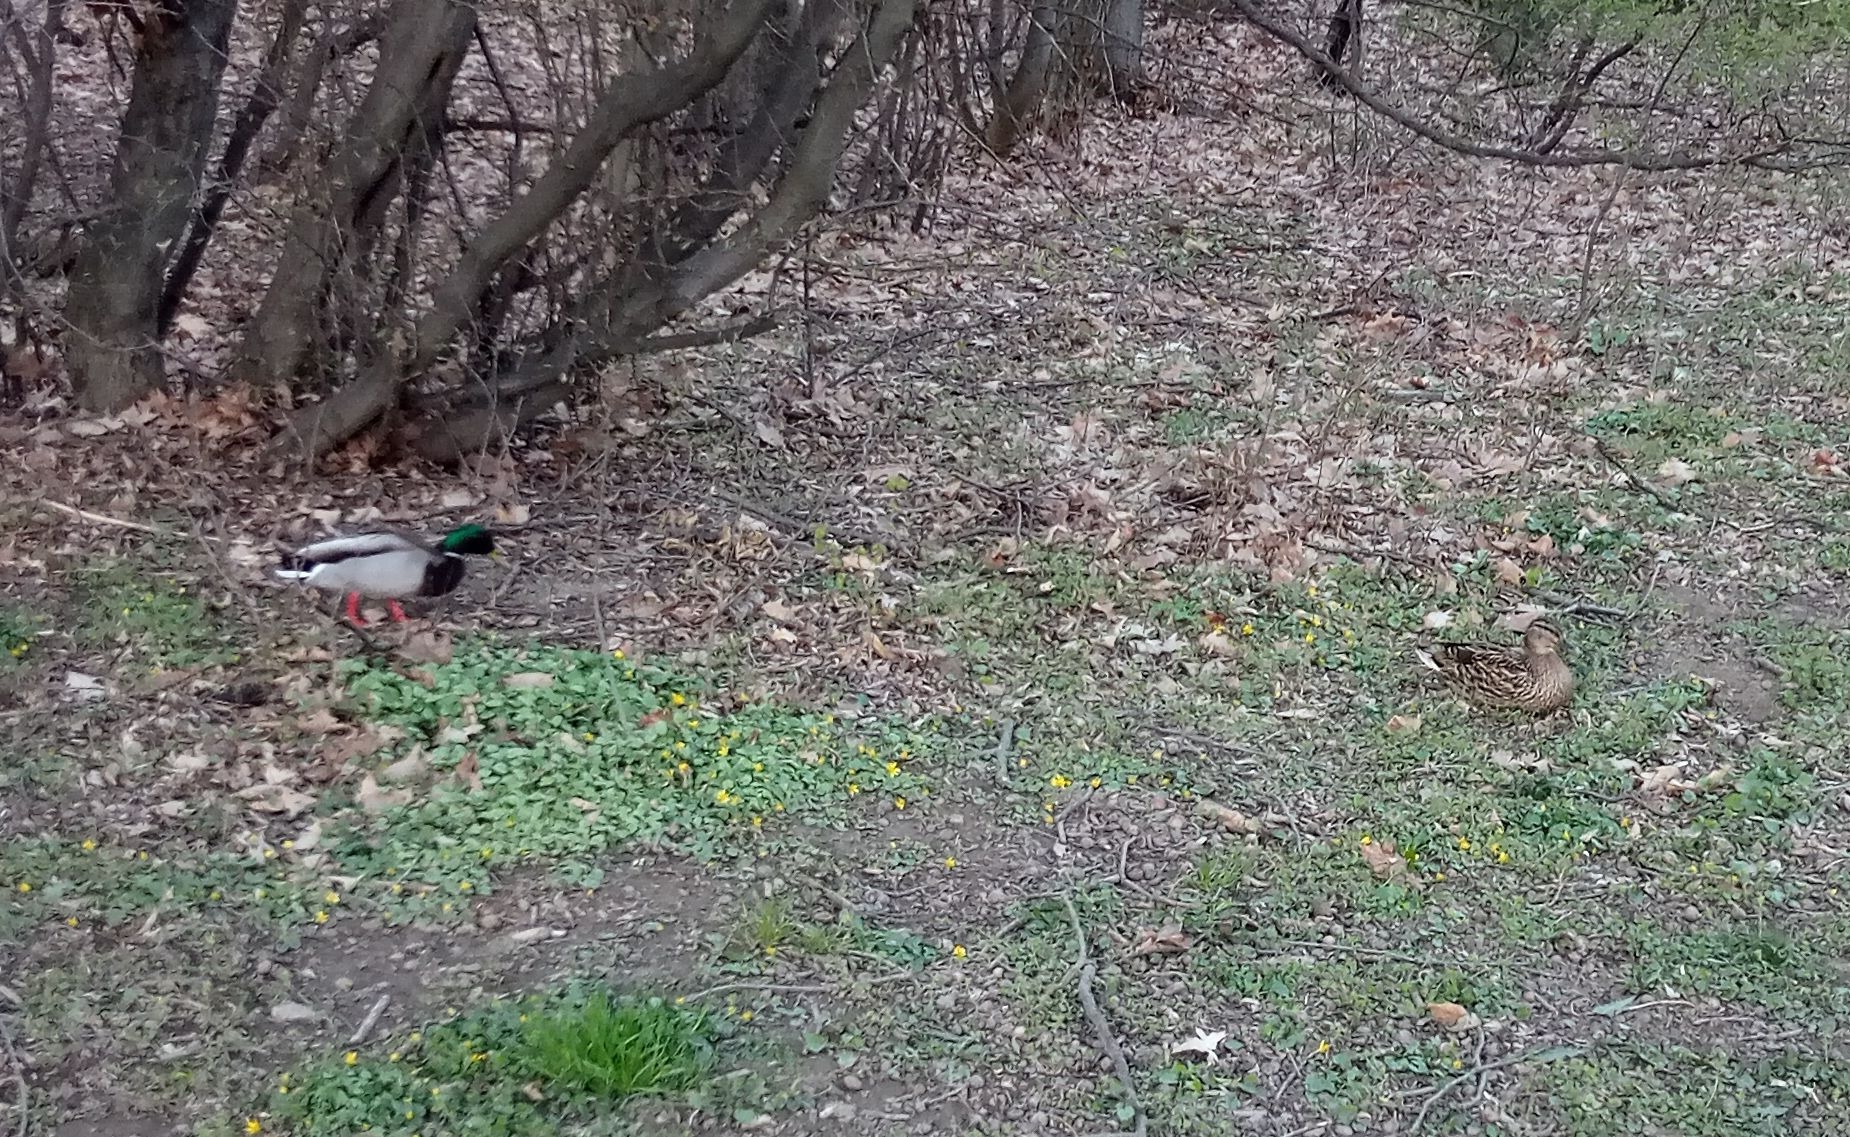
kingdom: Animalia
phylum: Chordata
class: Aves
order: Anseriformes
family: Anatidae
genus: Anas
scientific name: Anas platyrhynchos
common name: Mallard
